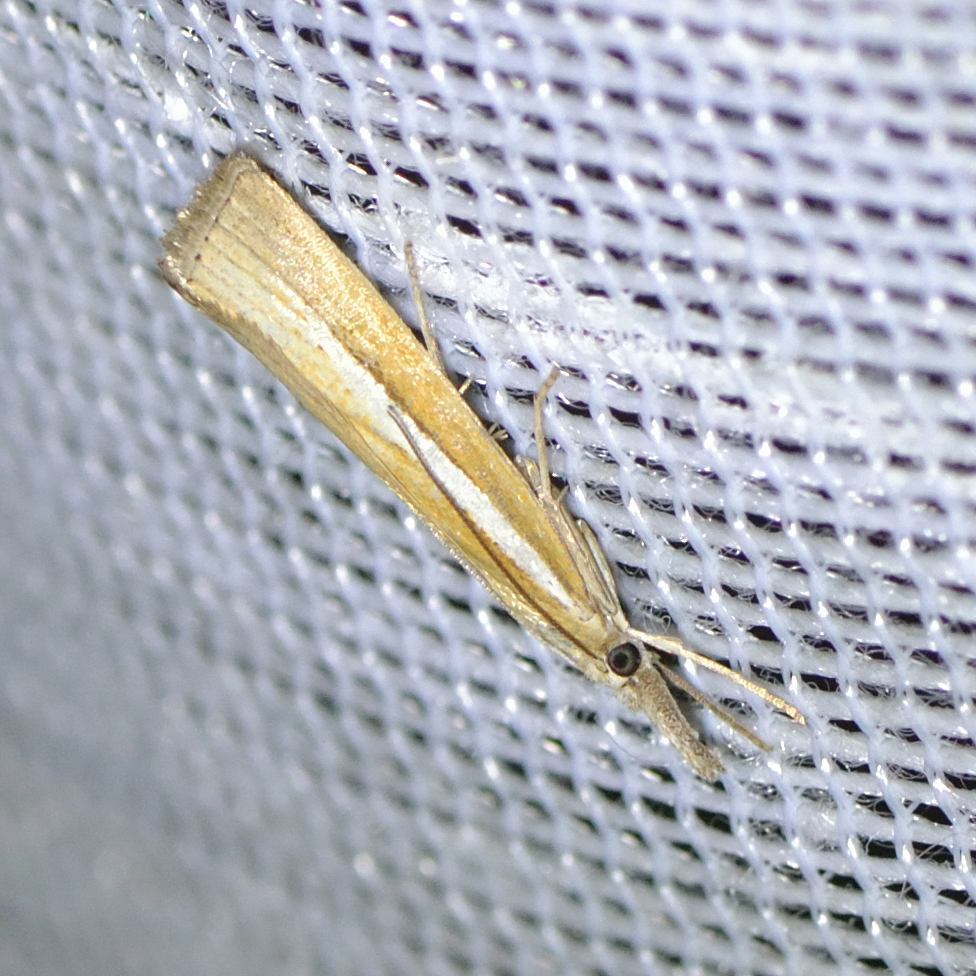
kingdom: Animalia
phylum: Arthropoda
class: Insecta
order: Lepidoptera
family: Crambidae
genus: Agriphila
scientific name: Agriphila selasella
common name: Pale-streak grass-veneer
